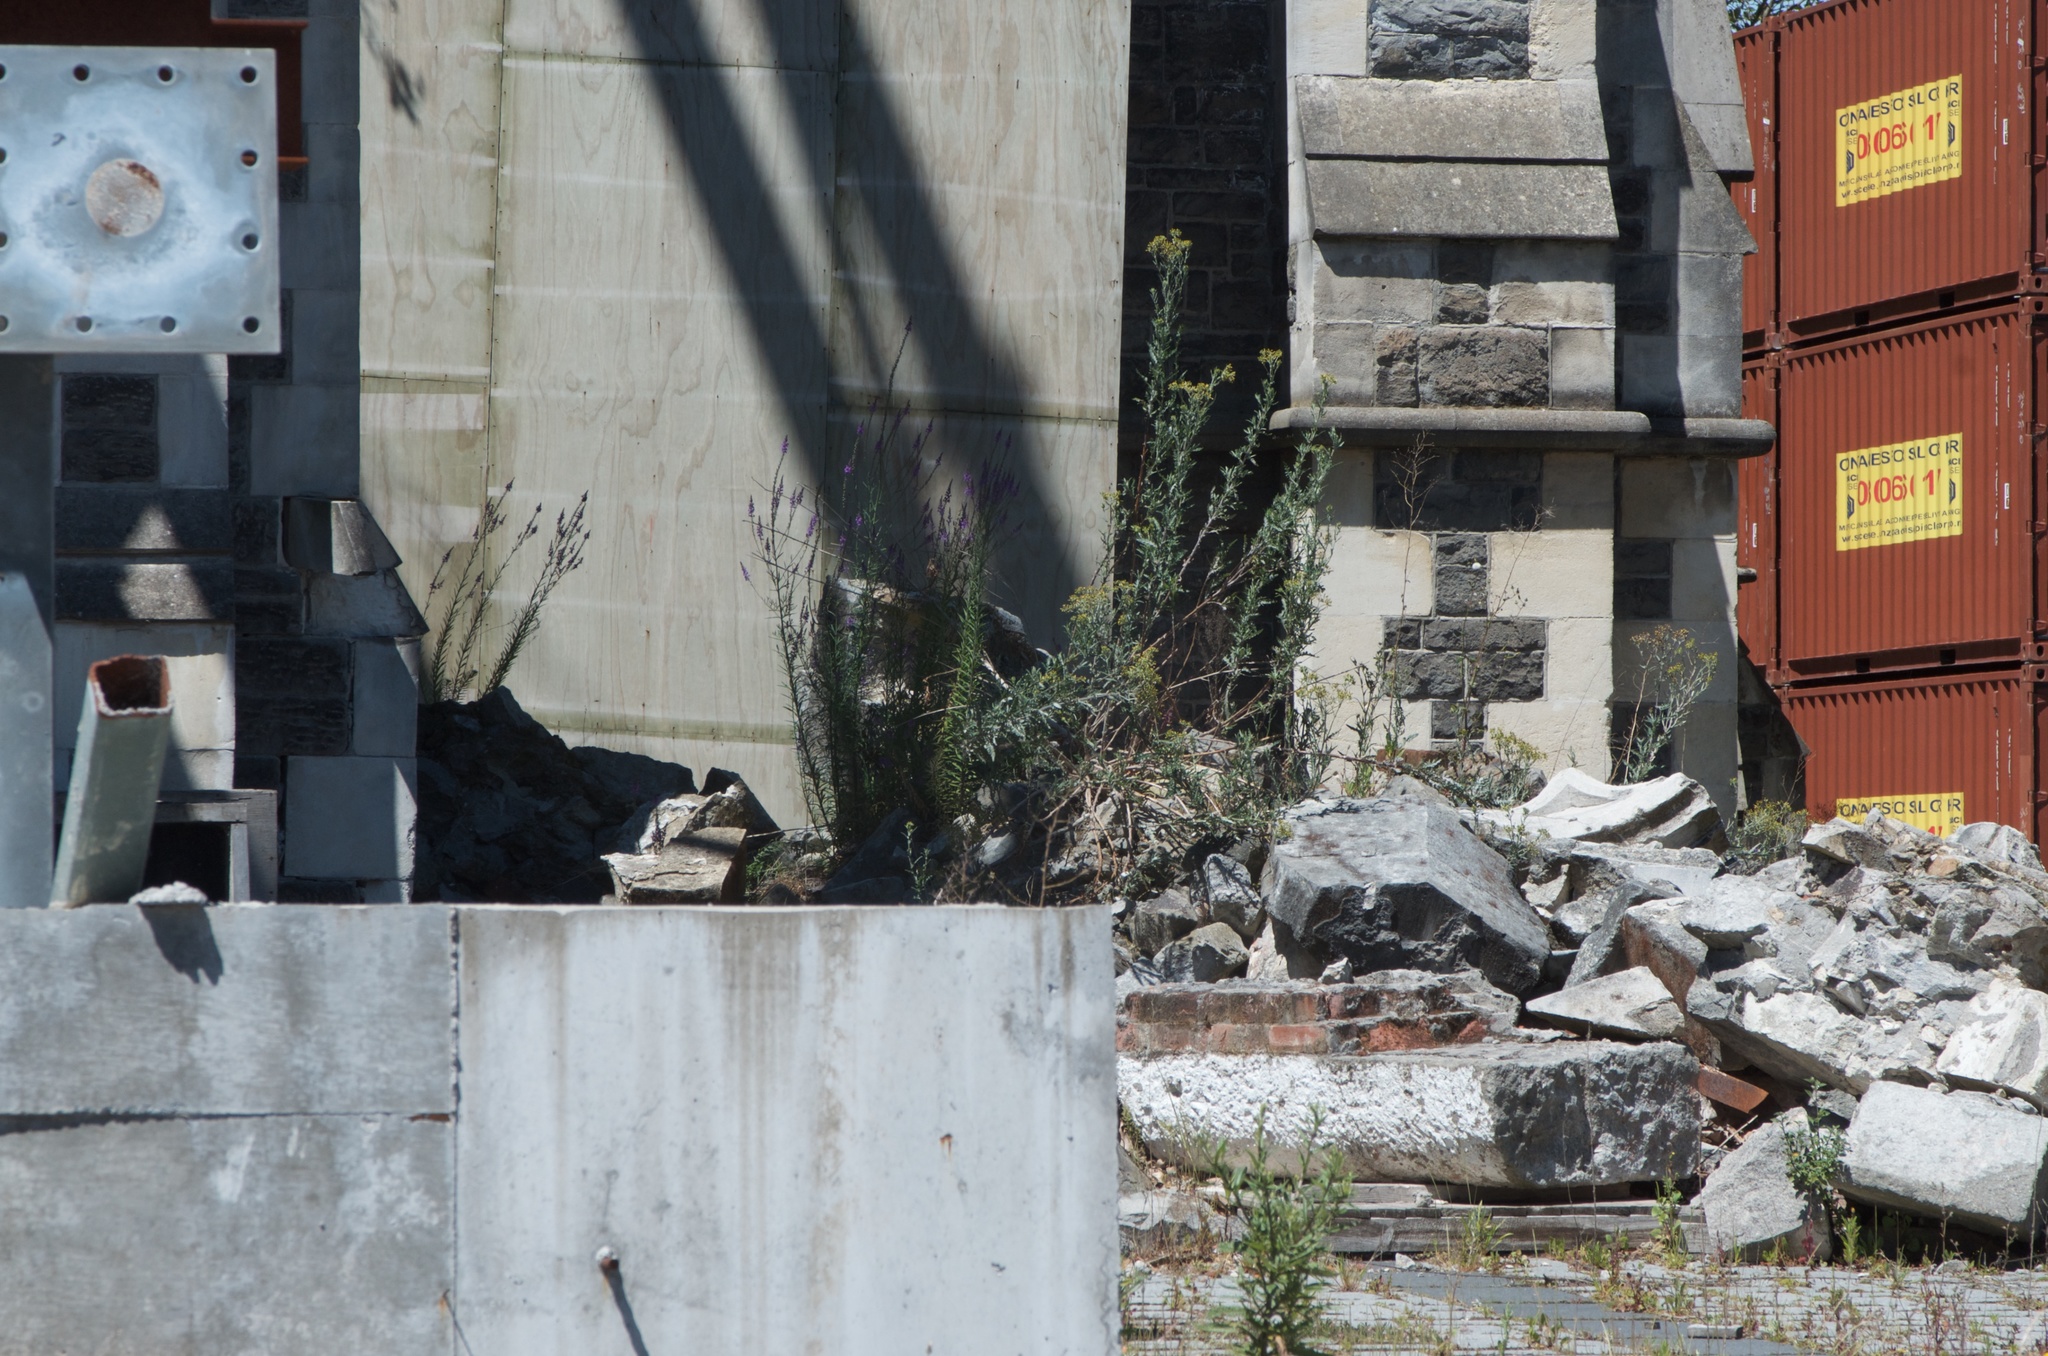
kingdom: Plantae
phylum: Tracheophyta
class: Magnoliopsida
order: Asterales
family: Asteraceae
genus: Senecio
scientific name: Senecio glomeratus
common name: Cutleaf burnweed
